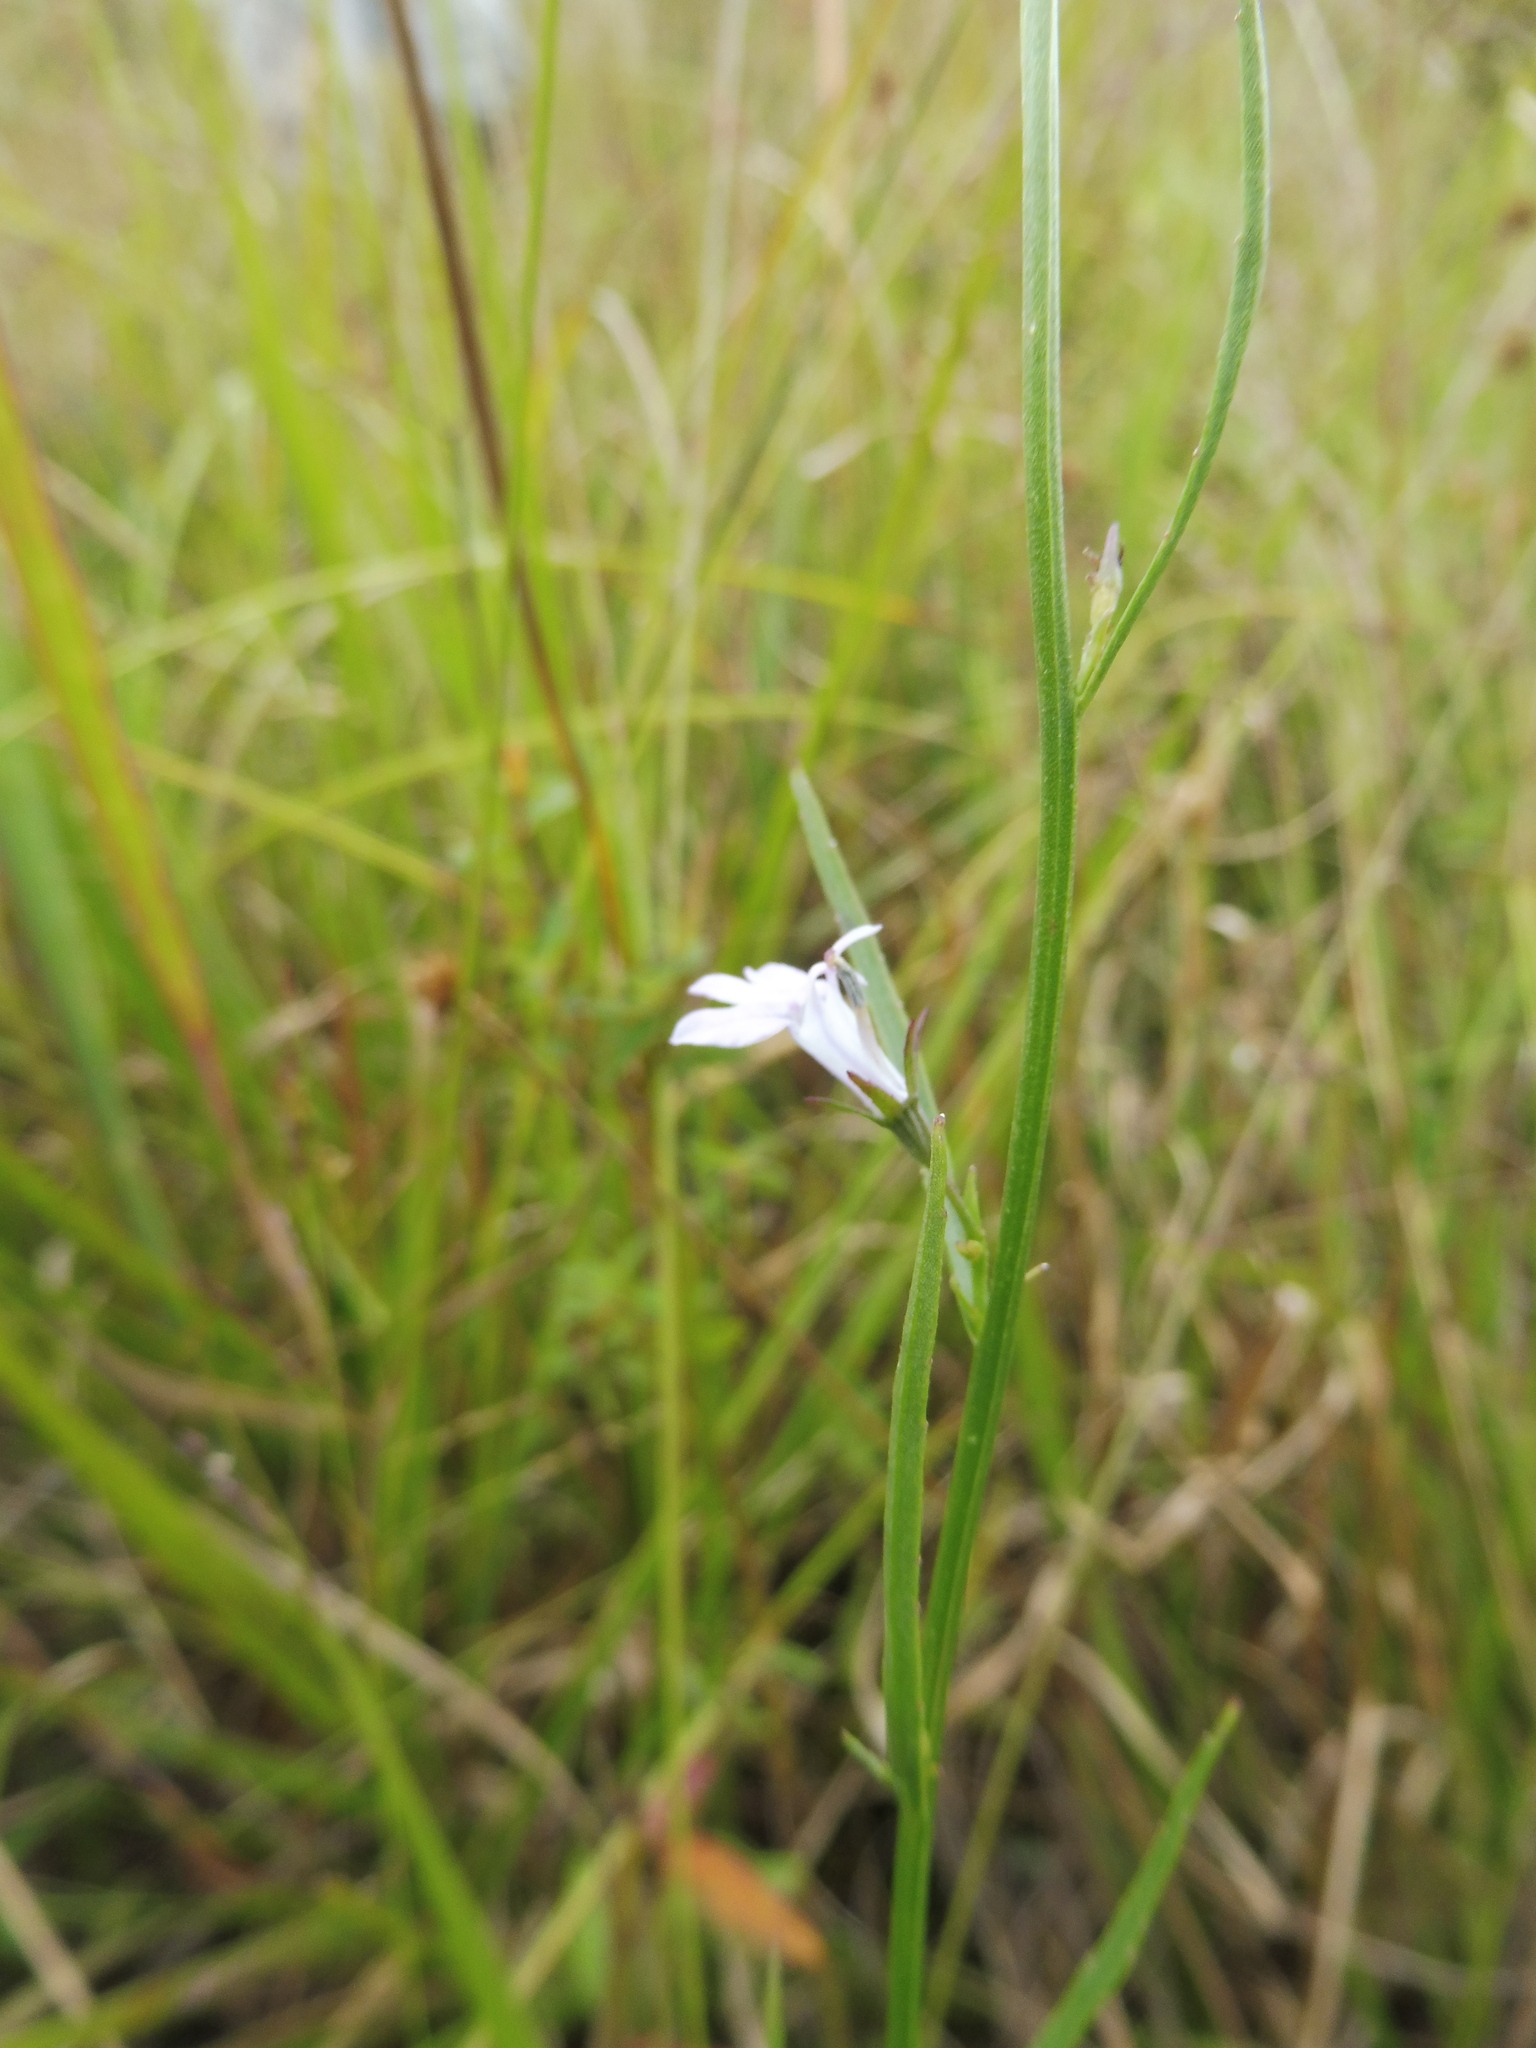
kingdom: Plantae
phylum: Tracheophyta
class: Magnoliopsida
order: Asterales
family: Campanulaceae
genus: Lobelia
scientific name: Lobelia canbyi
